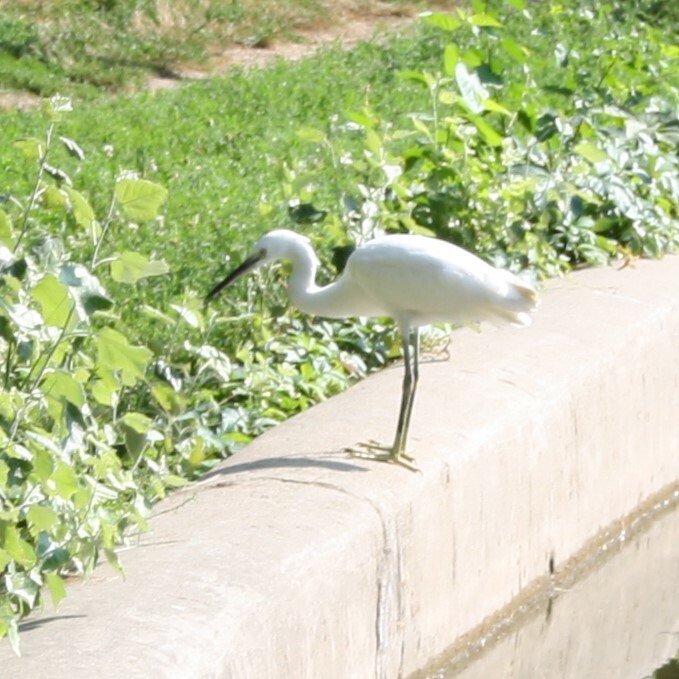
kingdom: Animalia
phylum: Chordata
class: Aves
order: Pelecaniformes
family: Ardeidae
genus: Egretta
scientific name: Egretta garzetta
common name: Little egret
